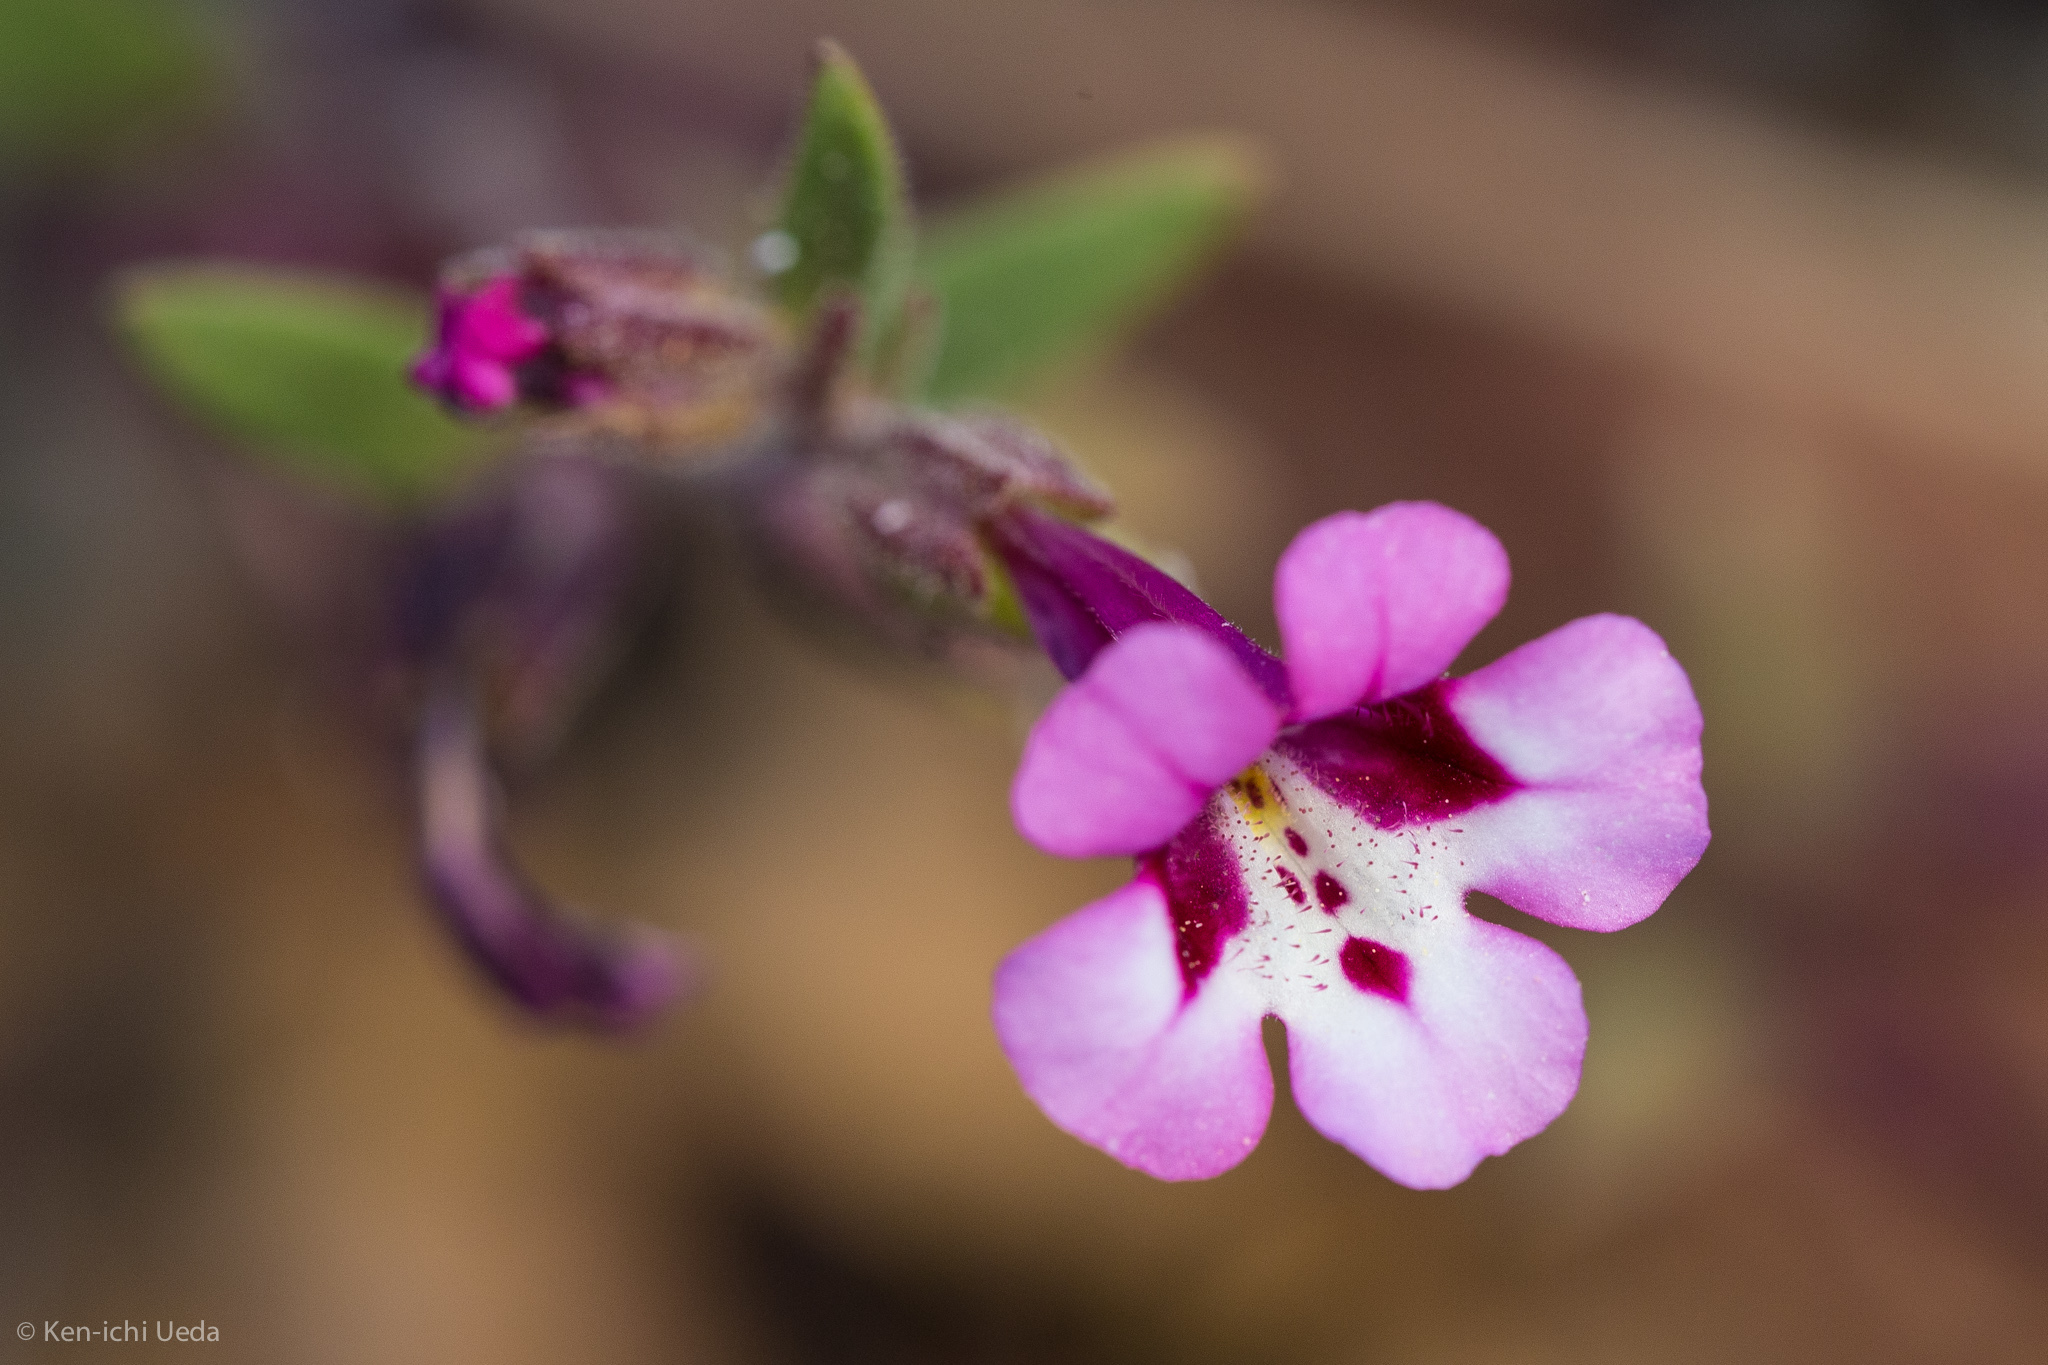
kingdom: Plantae
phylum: Tracheophyta
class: Magnoliopsida
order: Lamiales
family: Phrymaceae
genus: Diplacus
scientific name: Diplacus layneae
